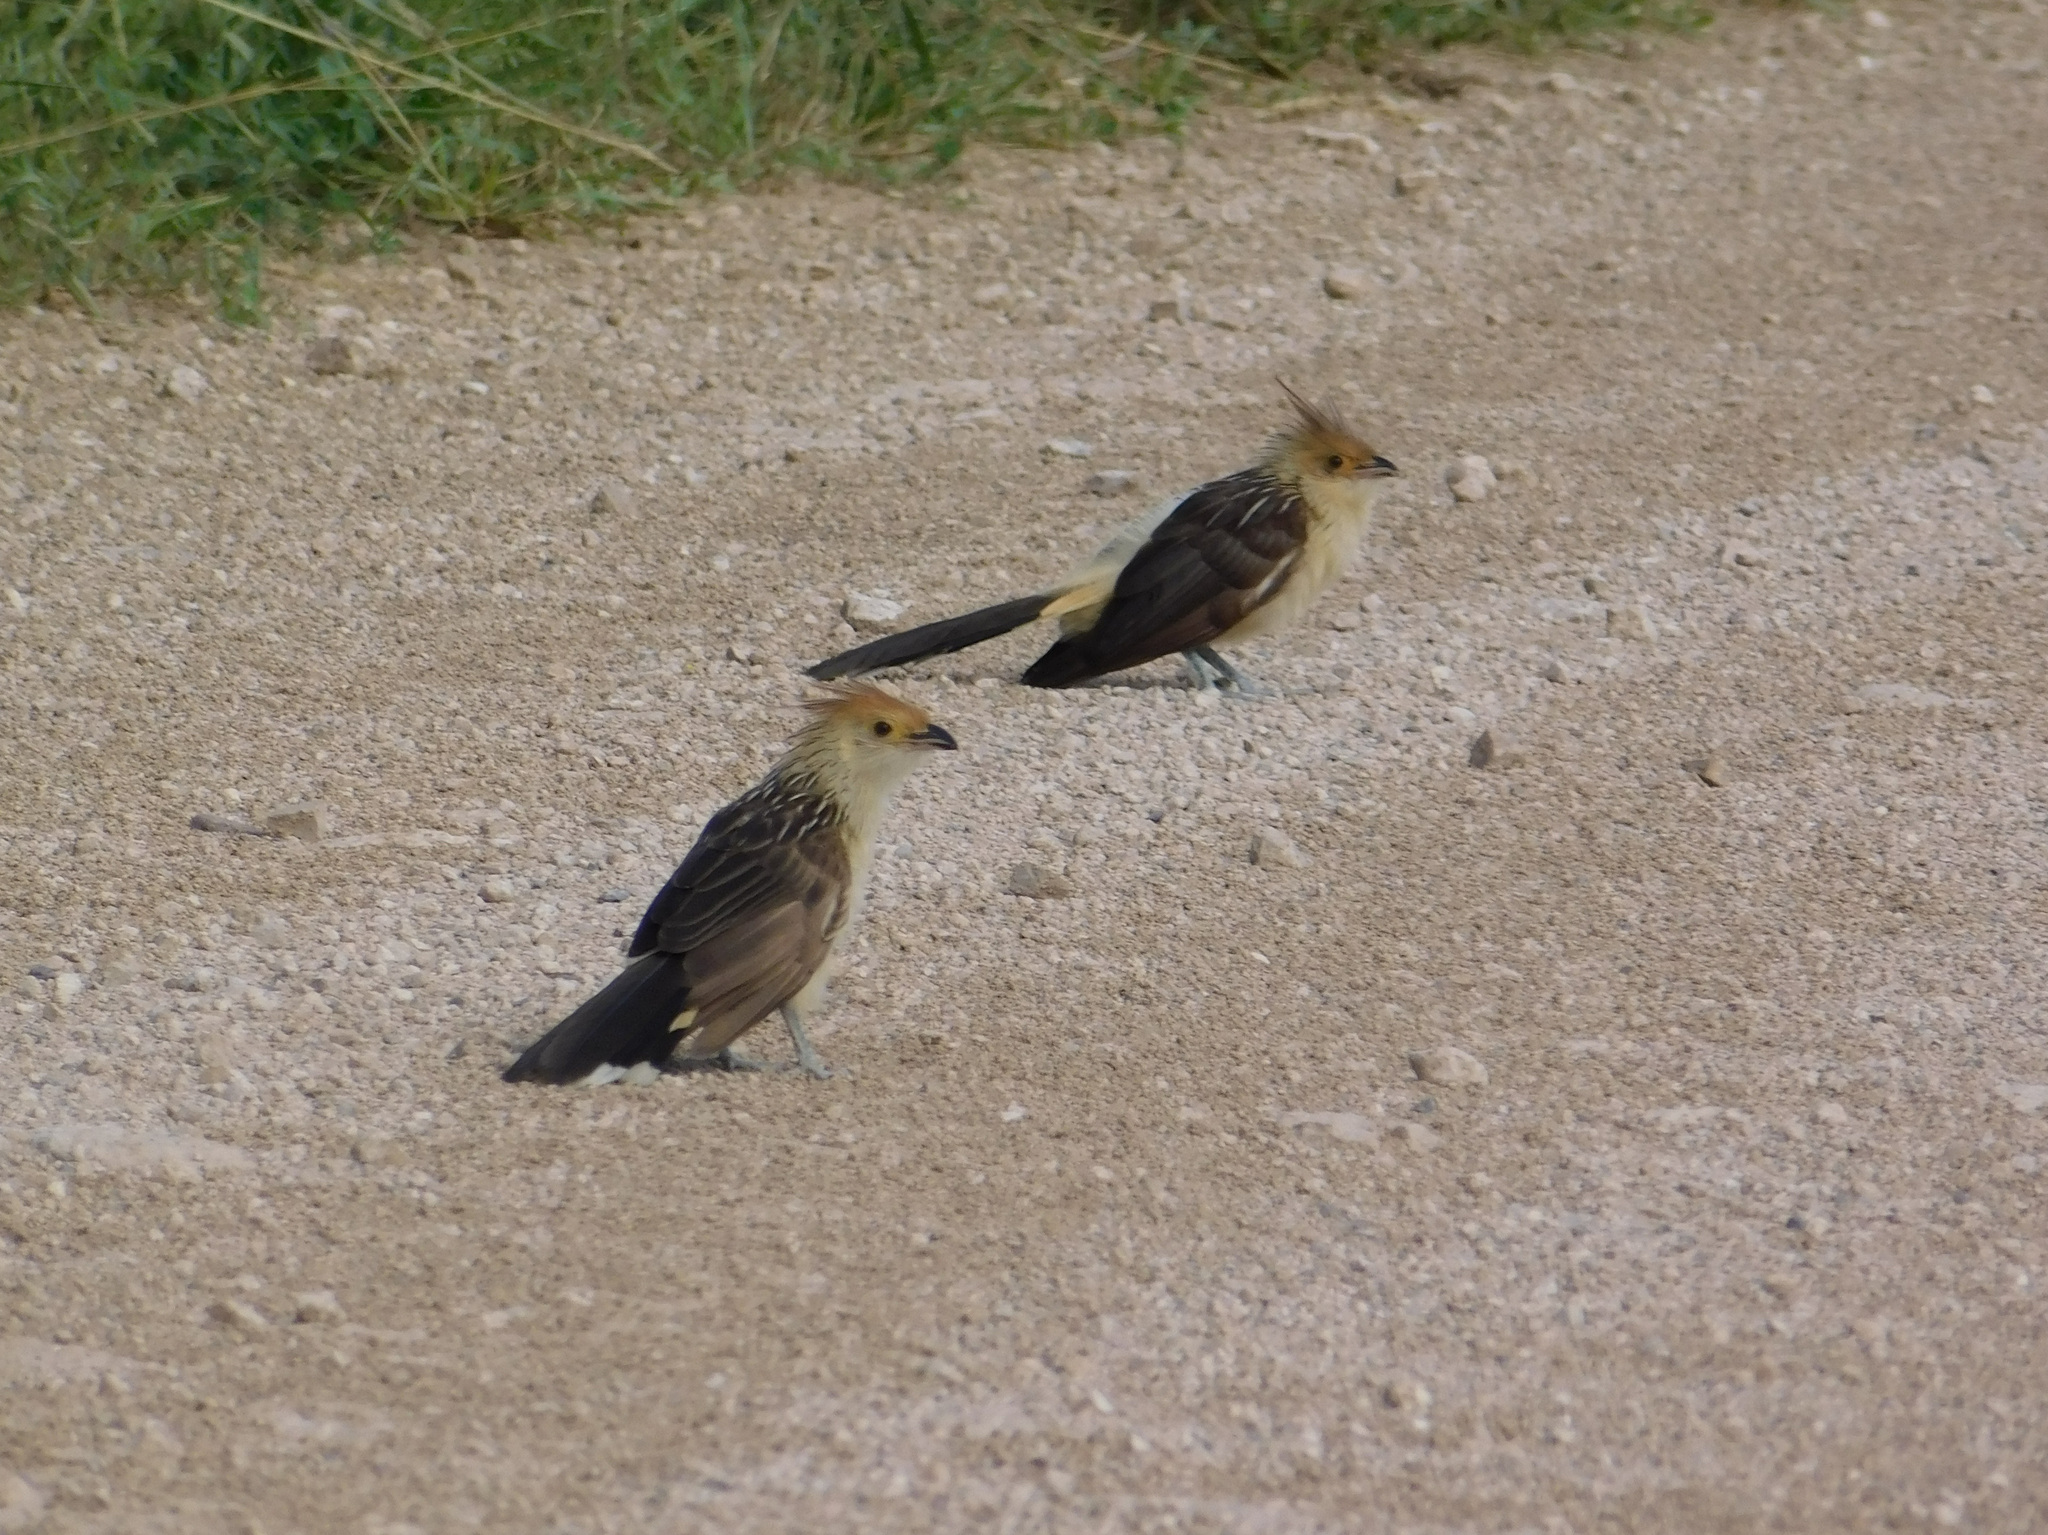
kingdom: Animalia
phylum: Chordata
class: Aves
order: Cuculiformes
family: Cuculidae
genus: Guira
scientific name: Guira guira
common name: Guira cuckoo
